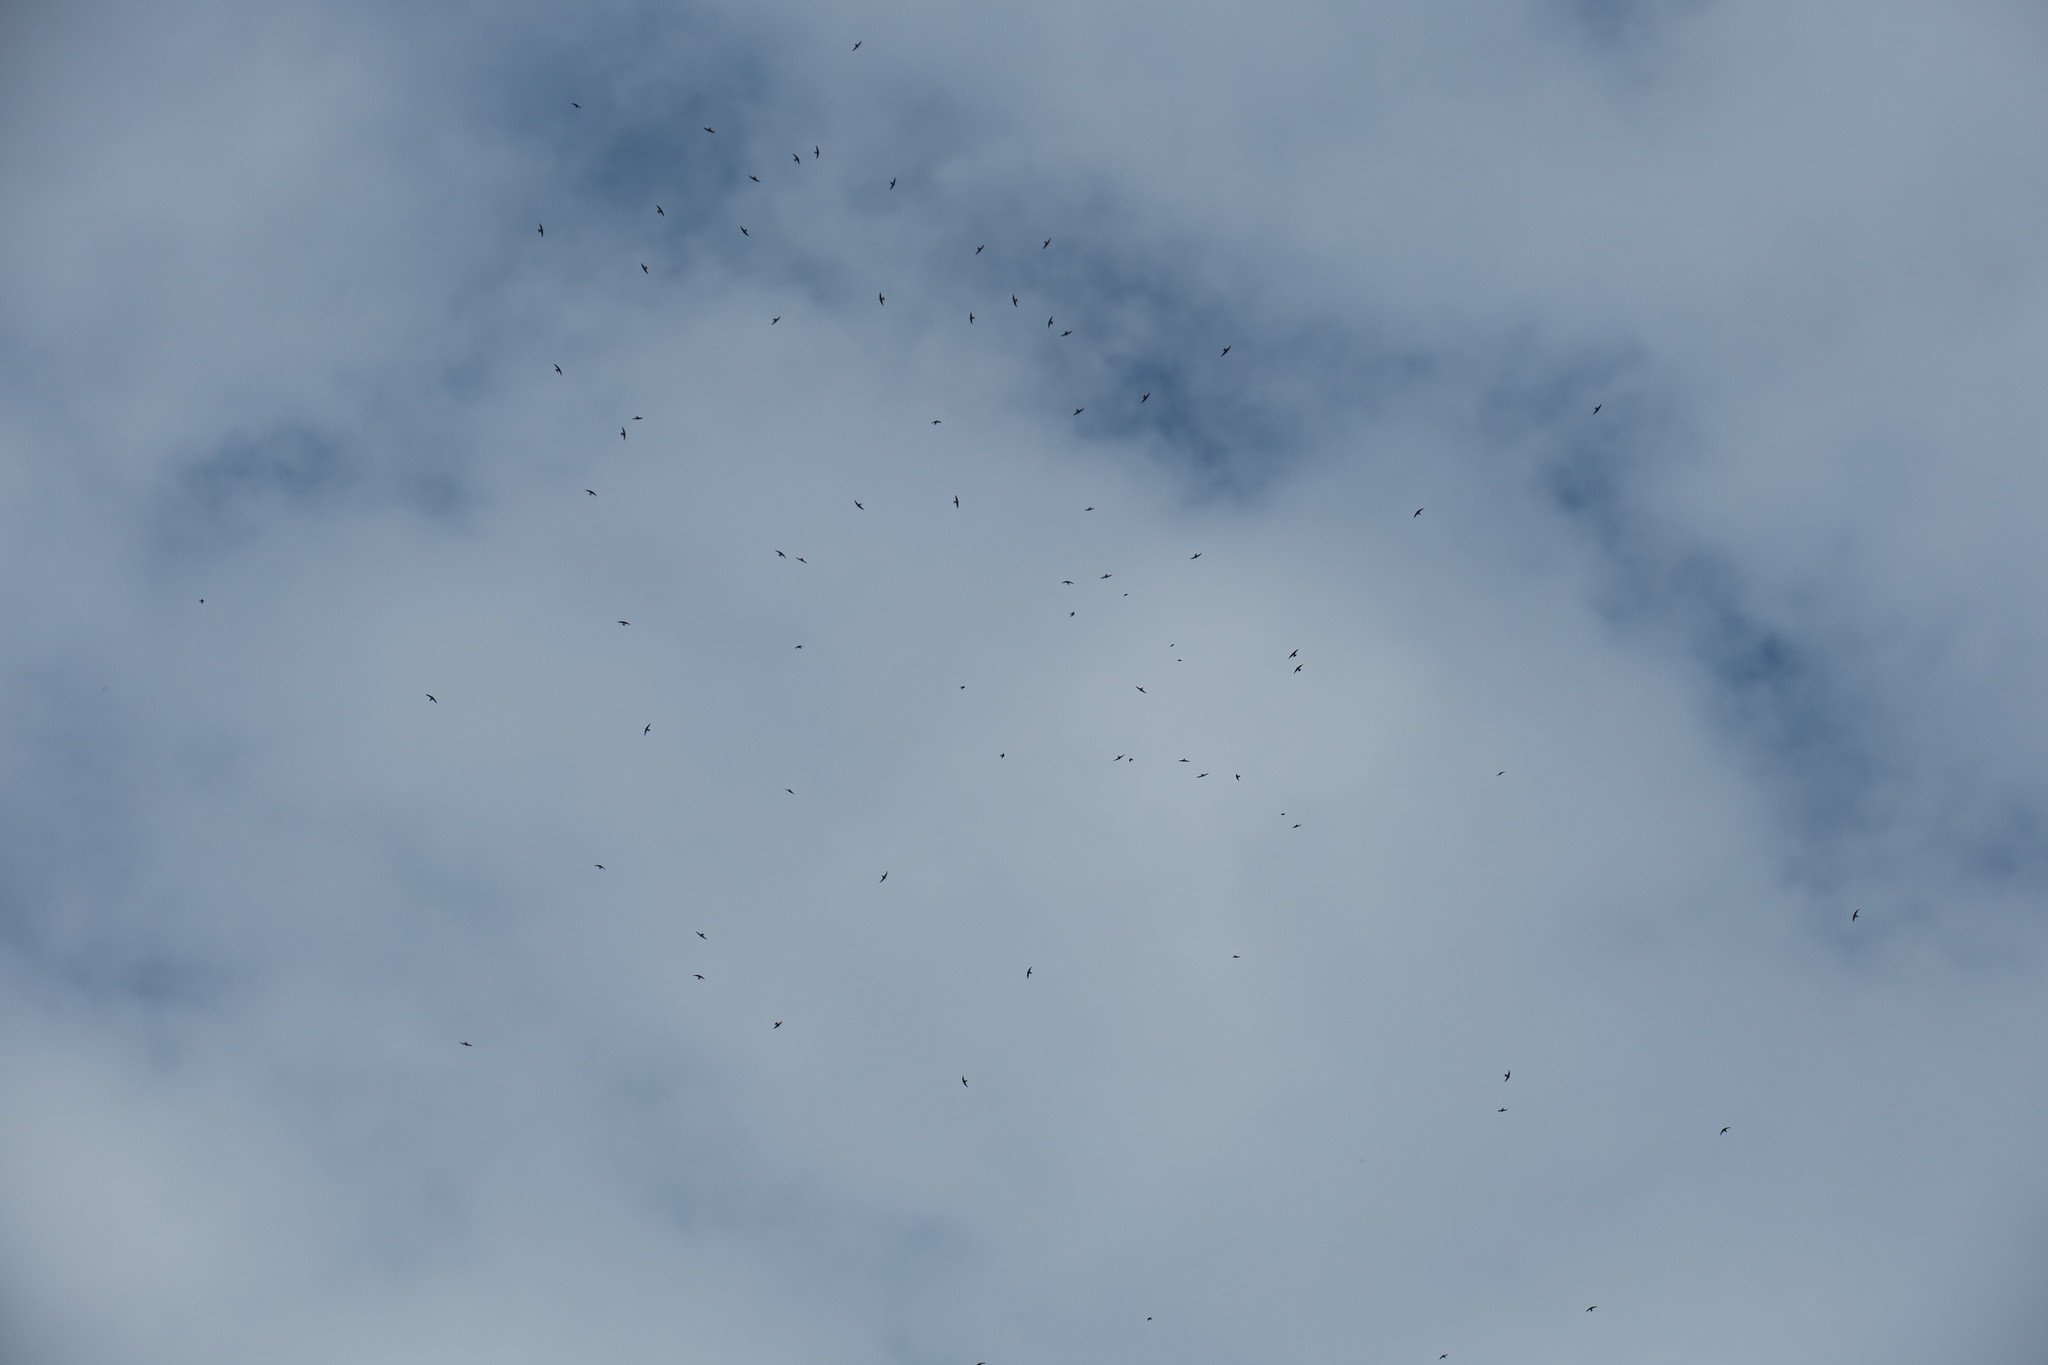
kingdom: Animalia
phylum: Chordata
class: Aves
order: Apodiformes
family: Apodidae
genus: Tachymarptis
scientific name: Tachymarptis melba
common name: Alpine swift
